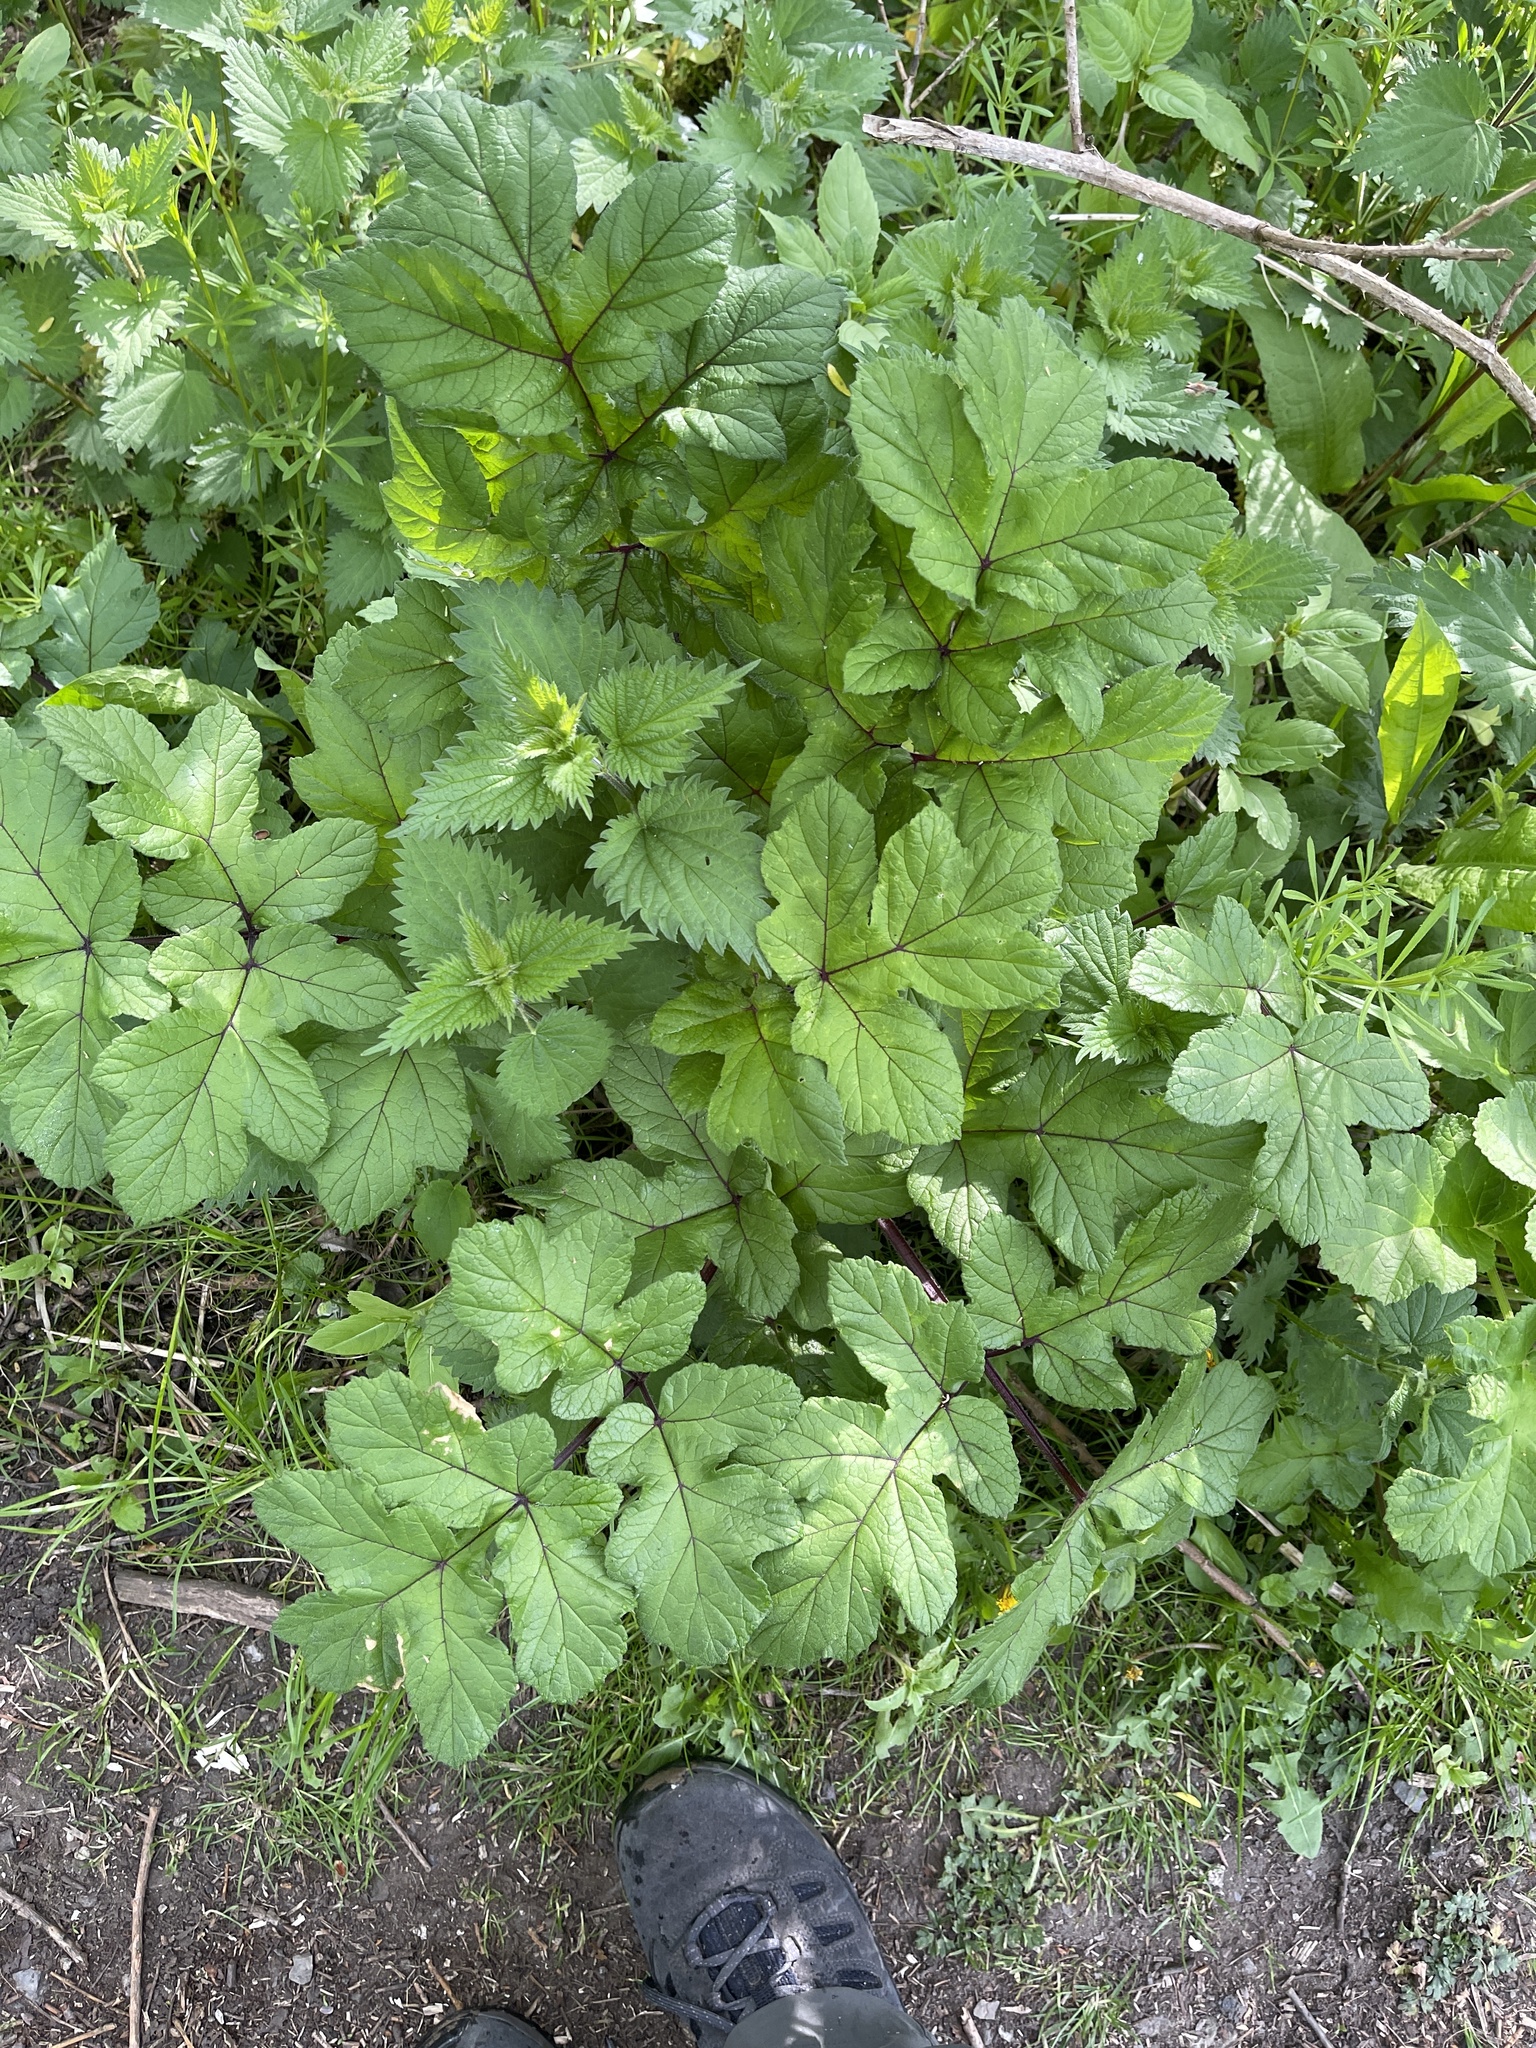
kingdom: Plantae
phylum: Tracheophyta
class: Magnoliopsida
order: Apiales
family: Apiaceae
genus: Heracleum
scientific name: Heracleum sphondylium
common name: Hogweed
